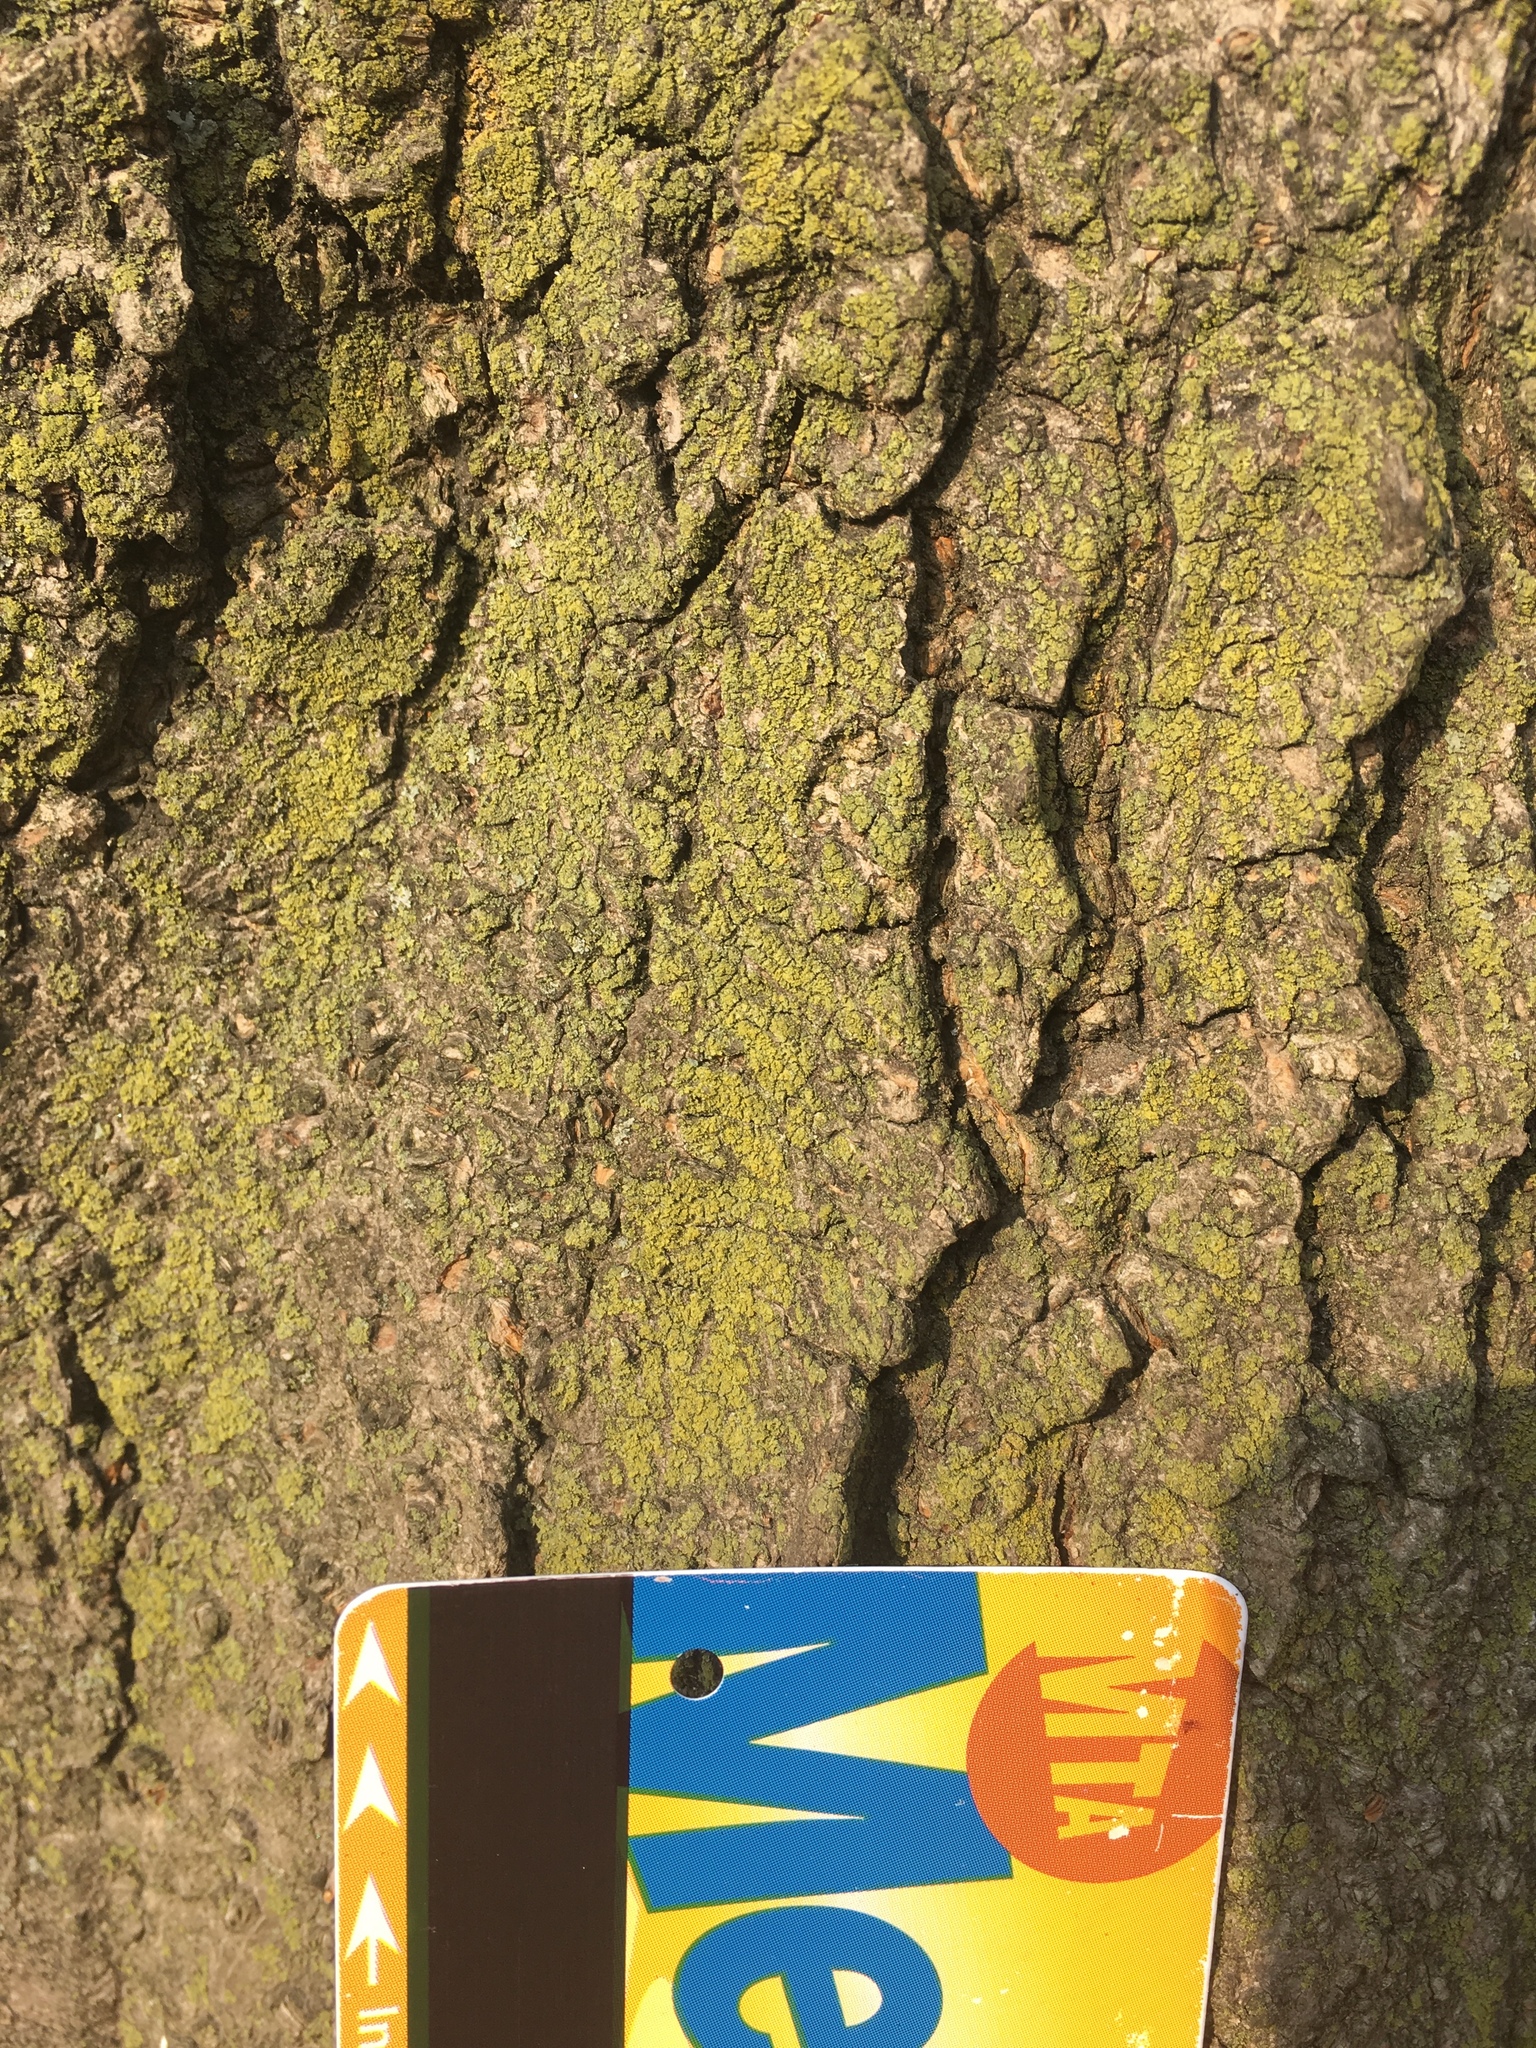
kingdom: Fungi
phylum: Ascomycota
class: Candelariomycetes
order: Candelariales
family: Candelariaceae
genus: Candelaria
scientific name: Candelaria concolor
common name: Candleflame lichen
